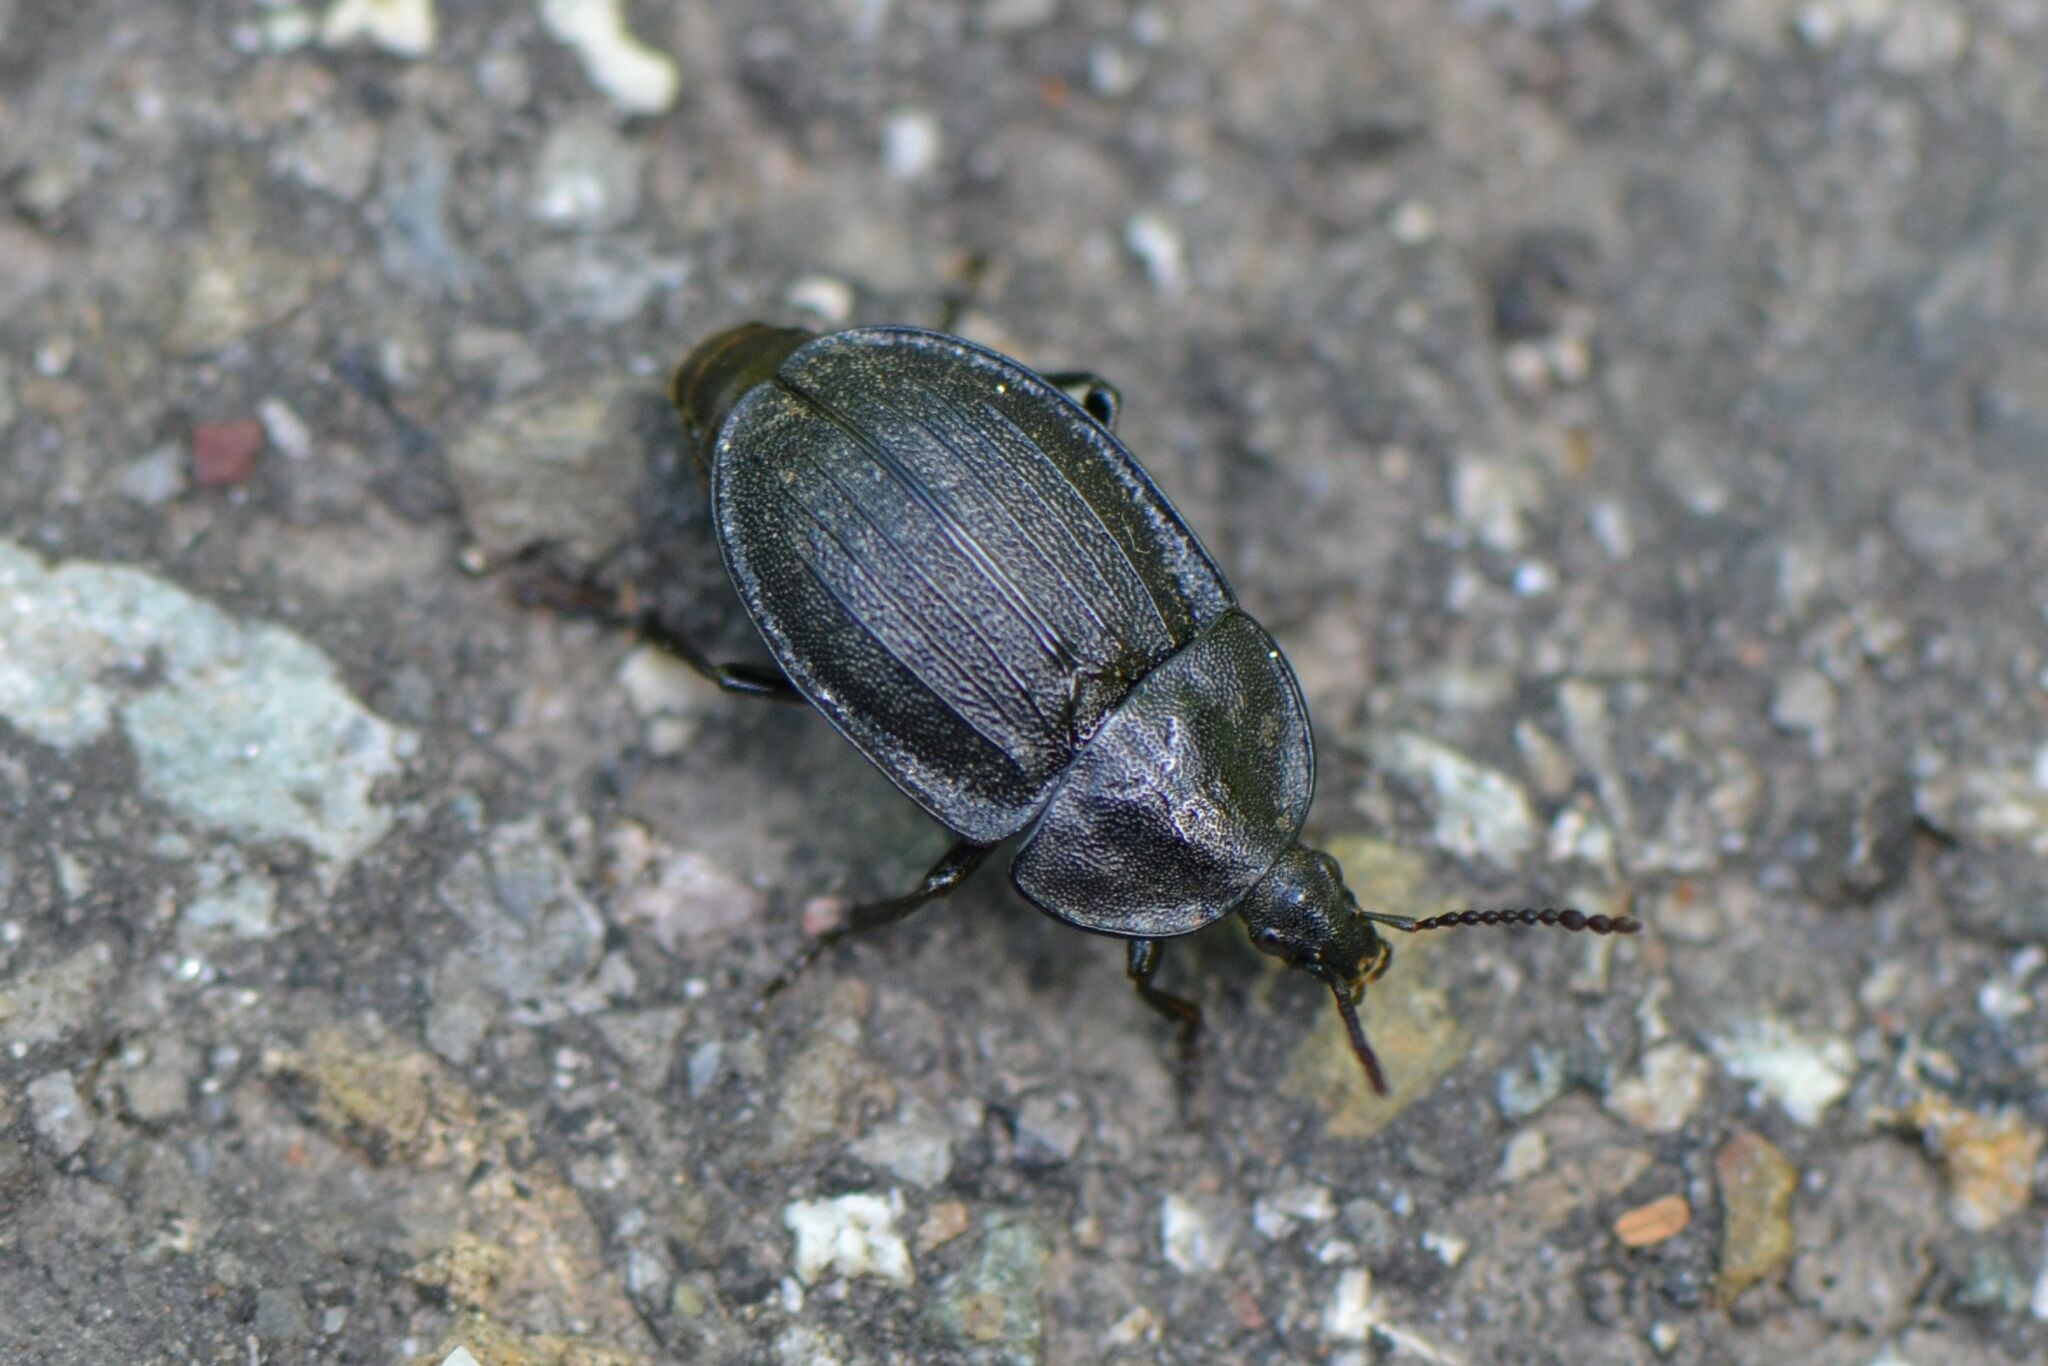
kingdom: Animalia
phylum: Arthropoda
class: Insecta
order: Coleoptera
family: Staphylinidae
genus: Silpha
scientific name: Silpha atrata
